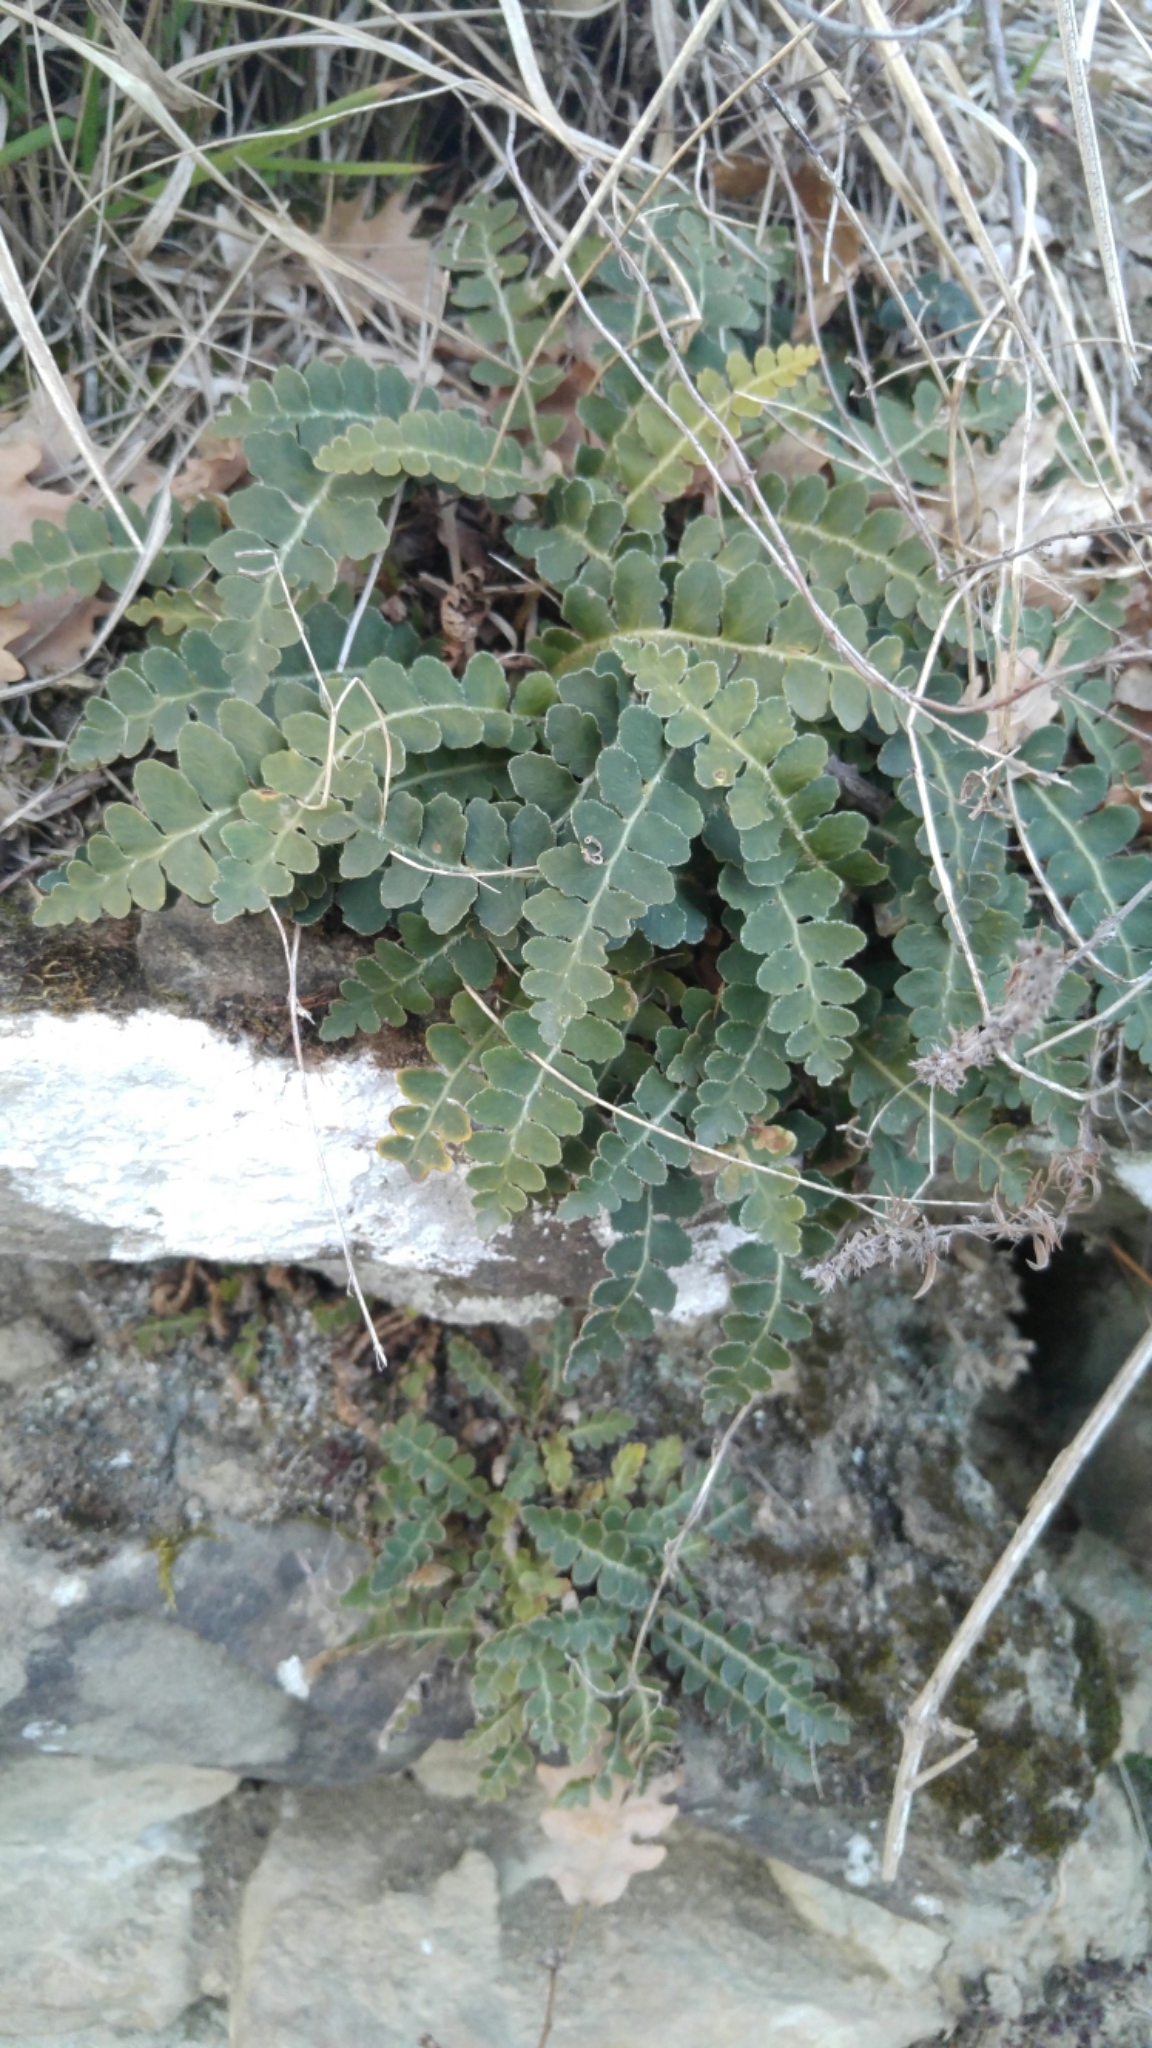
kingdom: Plantae
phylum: Tracheophyta
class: Polypodiopsida
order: Polypodiales
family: Aspleniaceae
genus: Asplenium
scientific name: Asplenium ceterach
